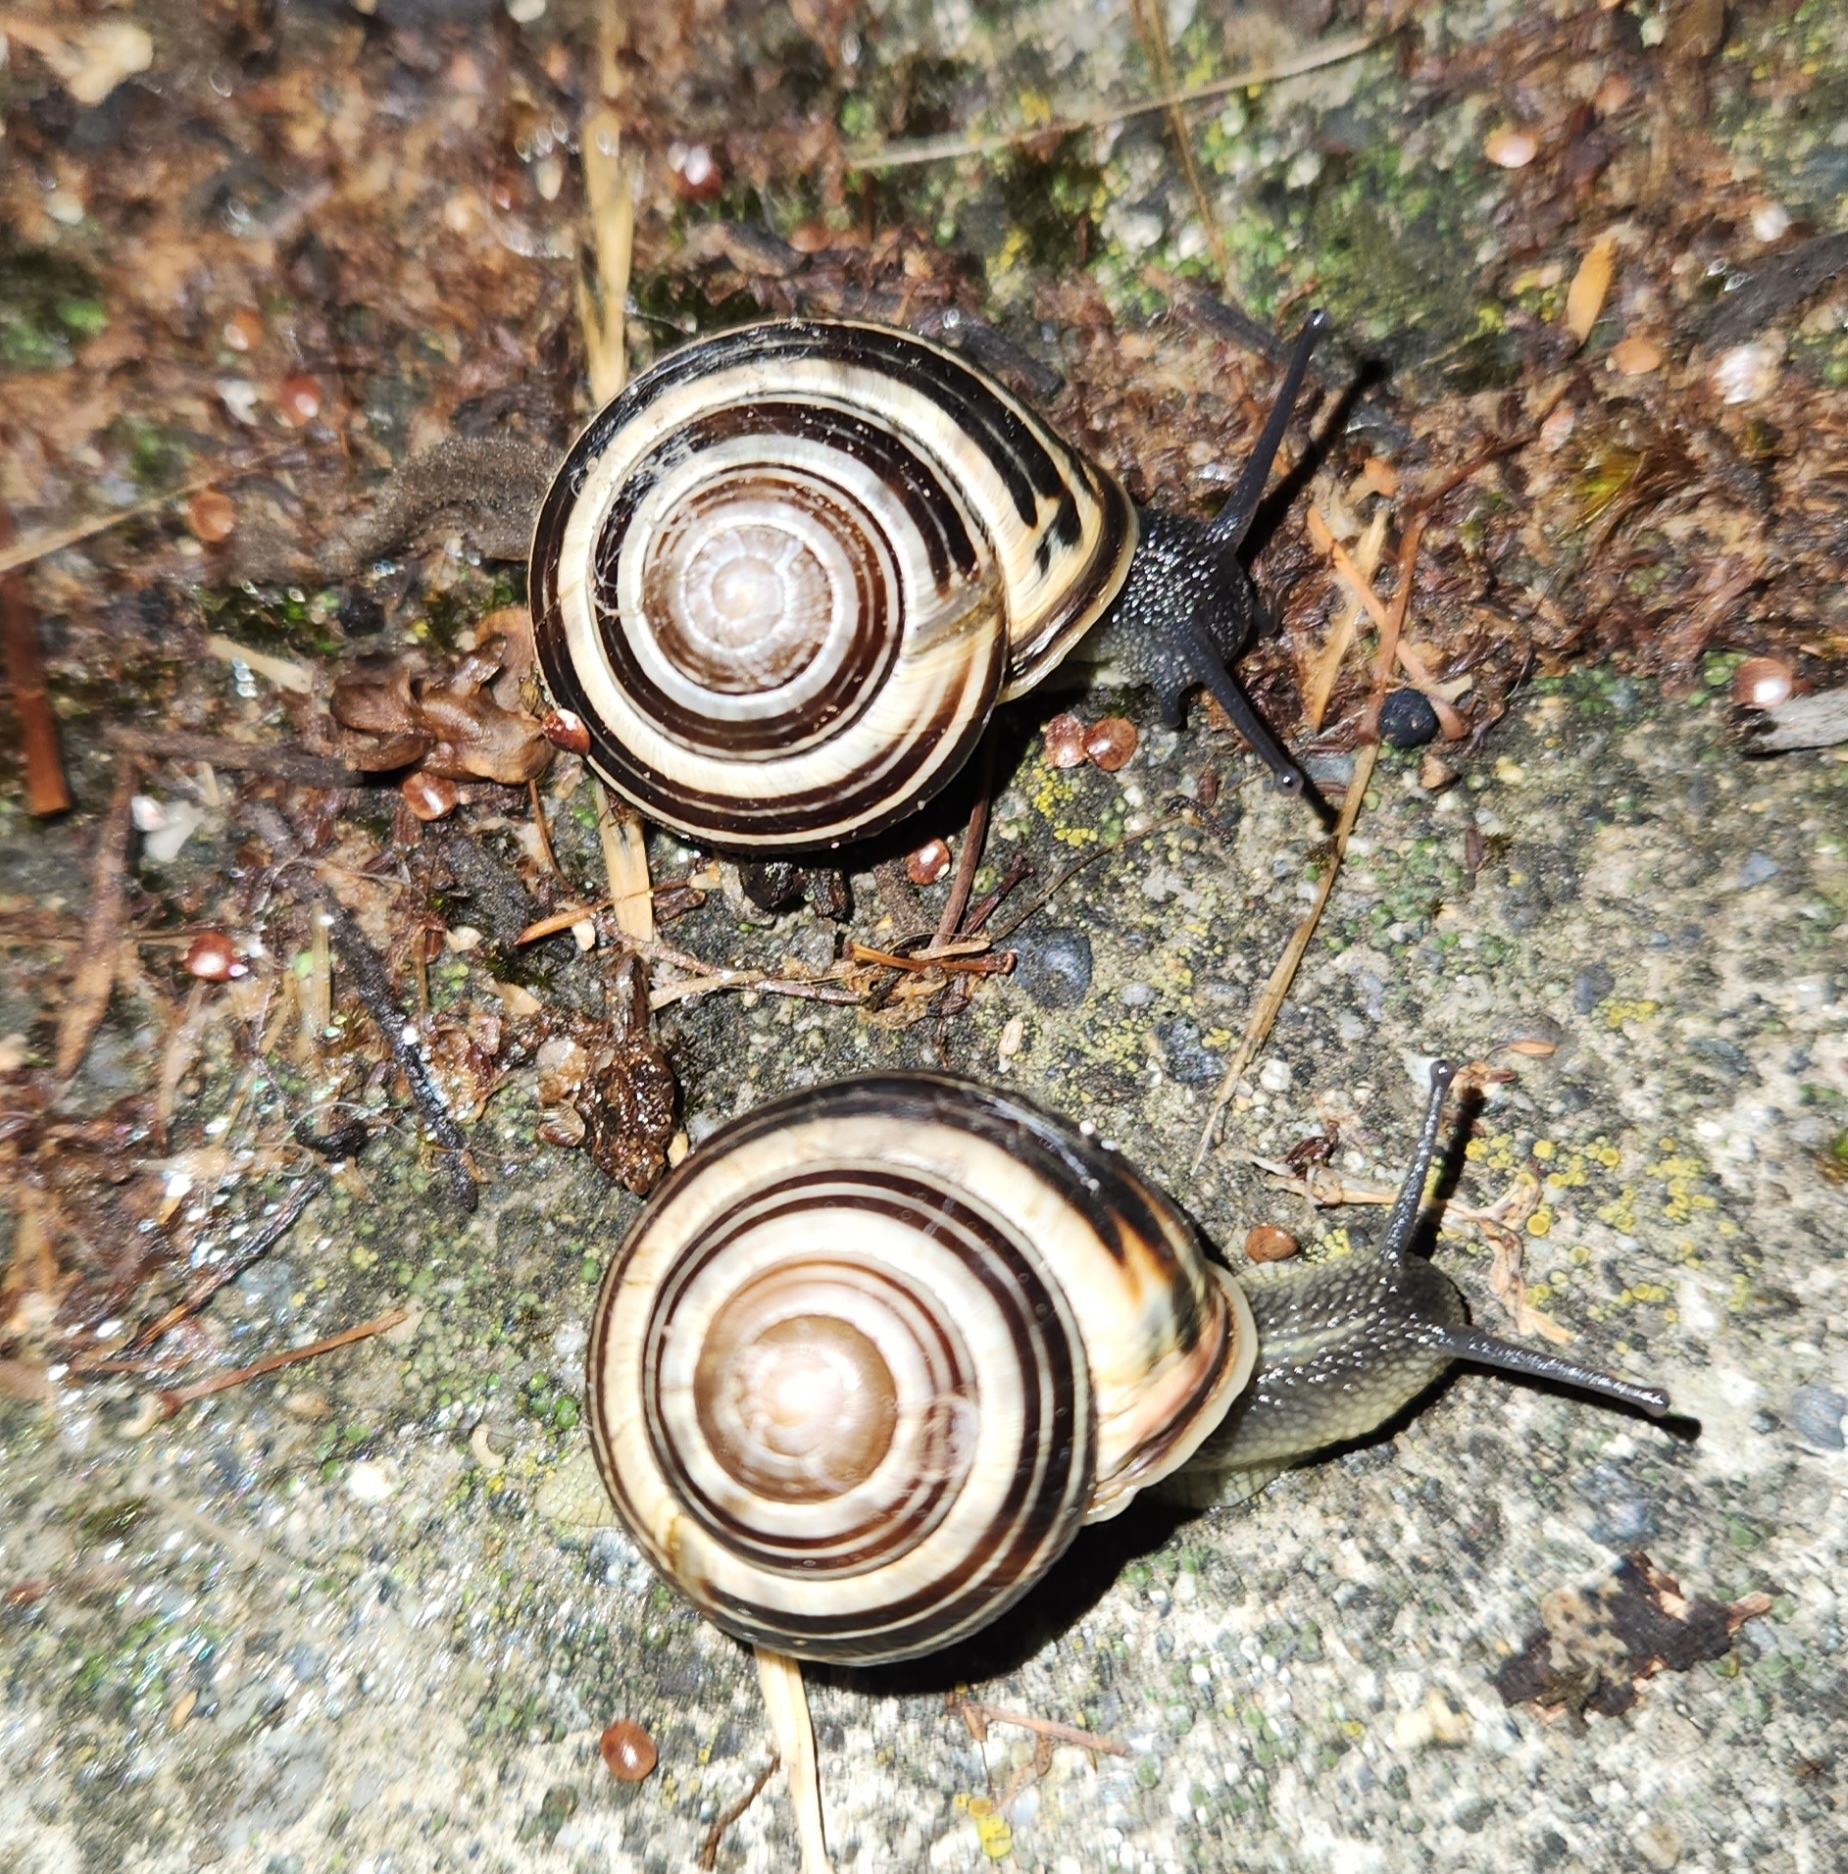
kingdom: Animalia
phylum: Mollusca
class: Gastropoda
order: Stylommatophora
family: Helicidae
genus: Cepaea
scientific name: Cepaea nemoralis
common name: Grovesnail
